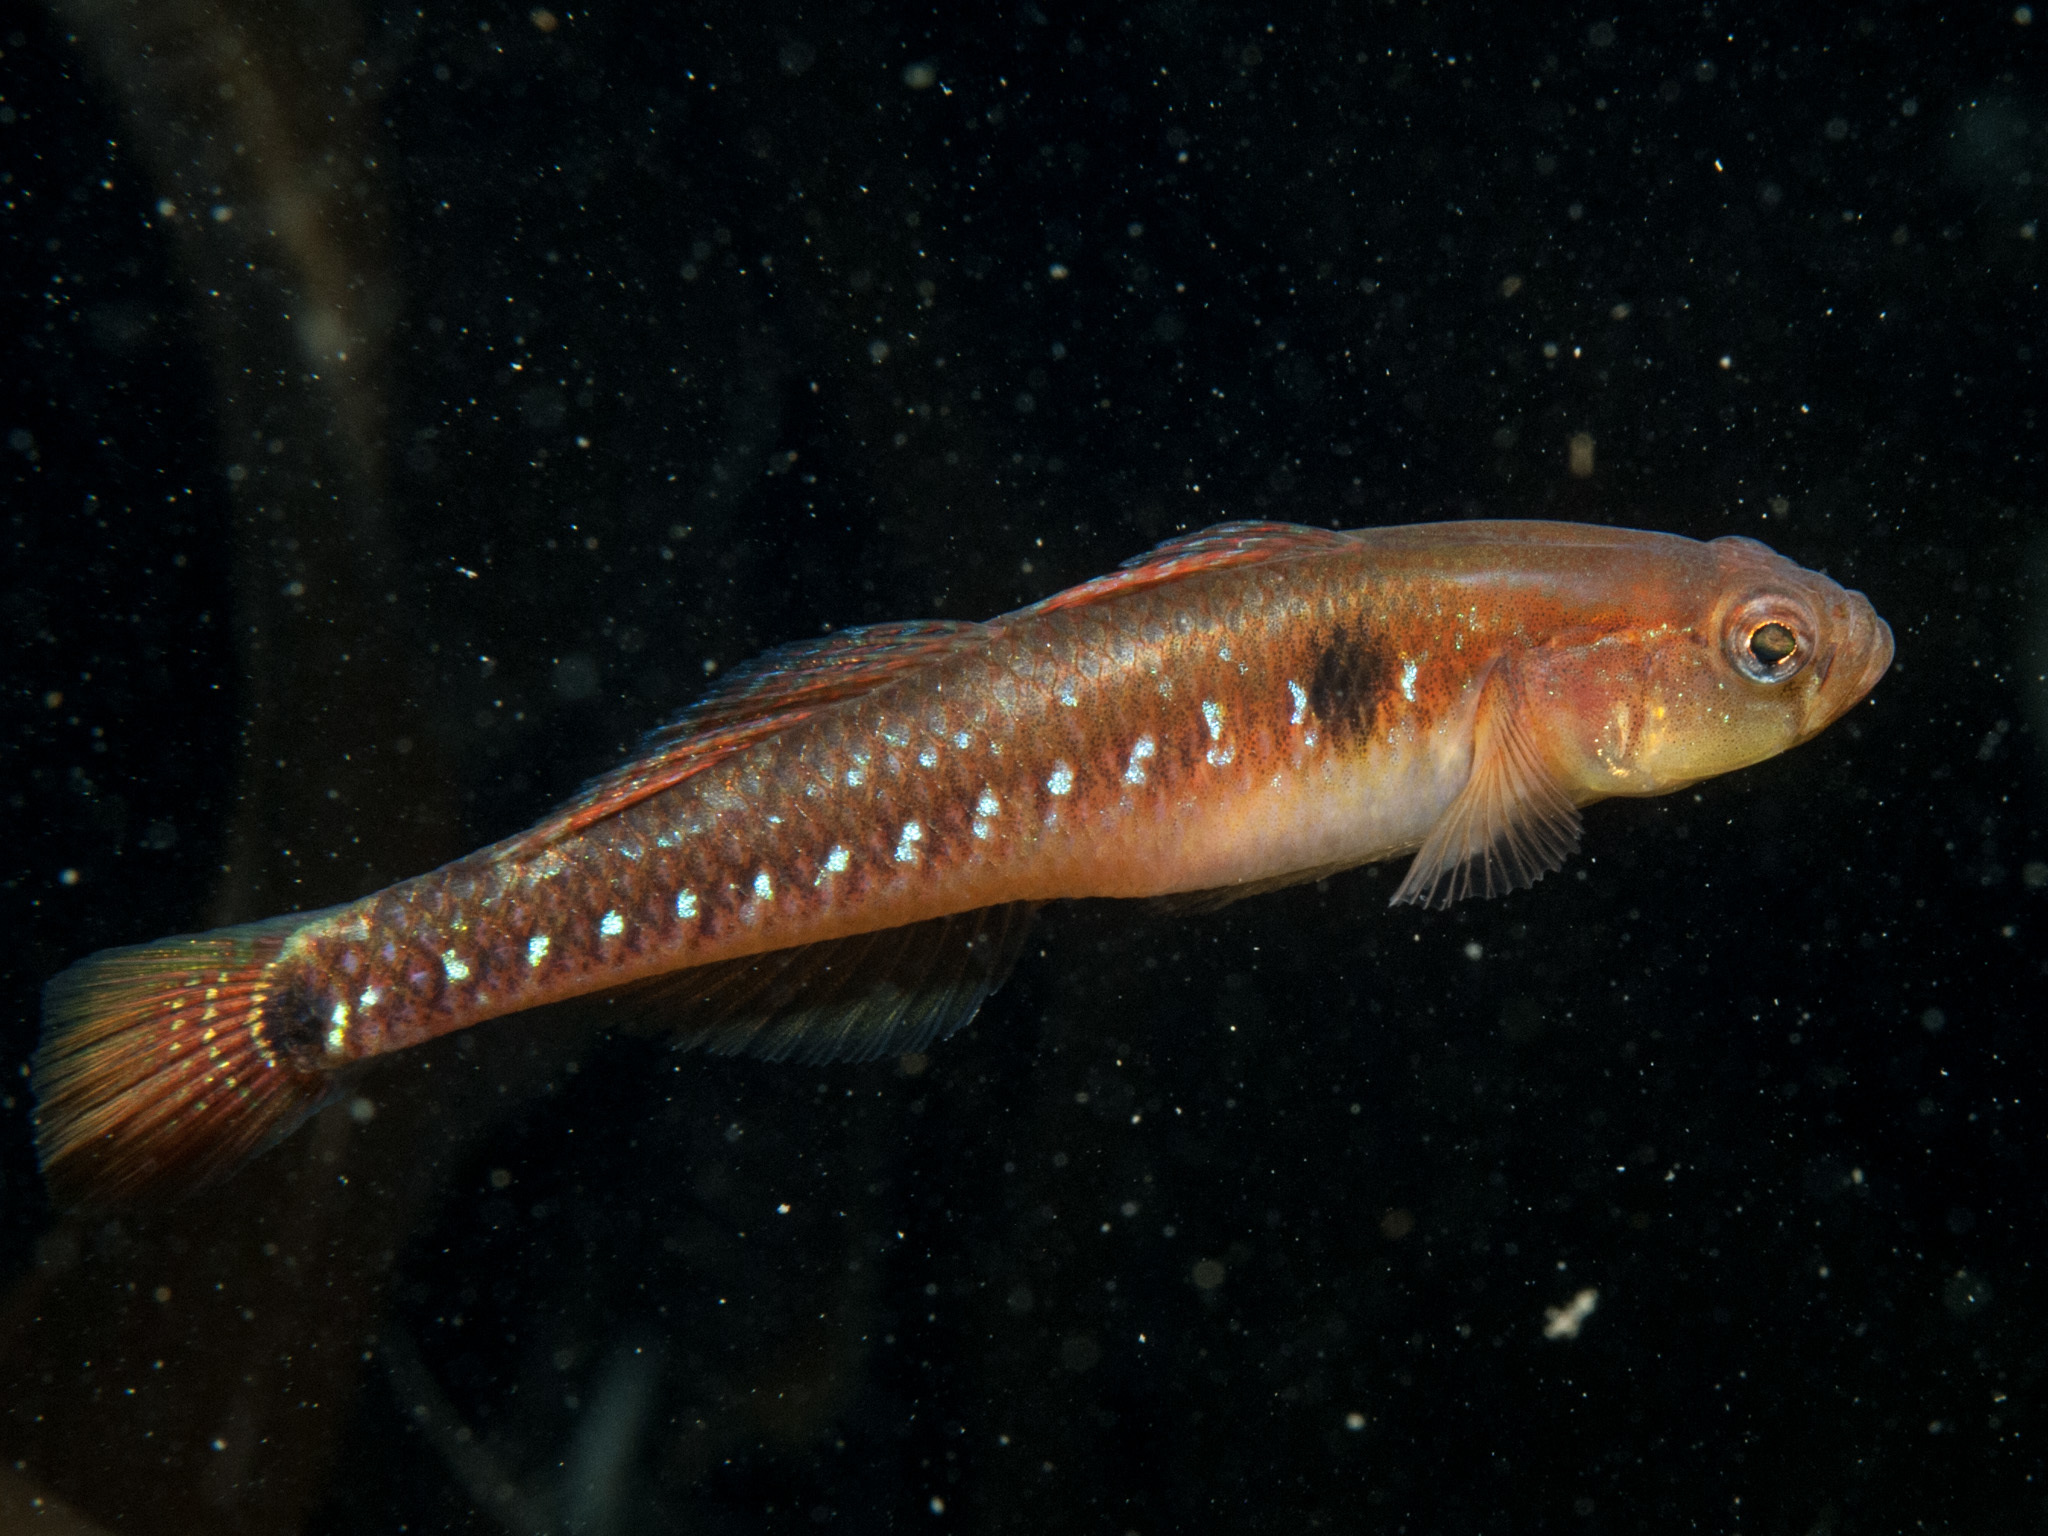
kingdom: Animalia
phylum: Chordata
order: Perciformes
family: Gobiidae
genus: Gobiusculus
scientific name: Gobiusculus flavescens
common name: Two-spotted goby
